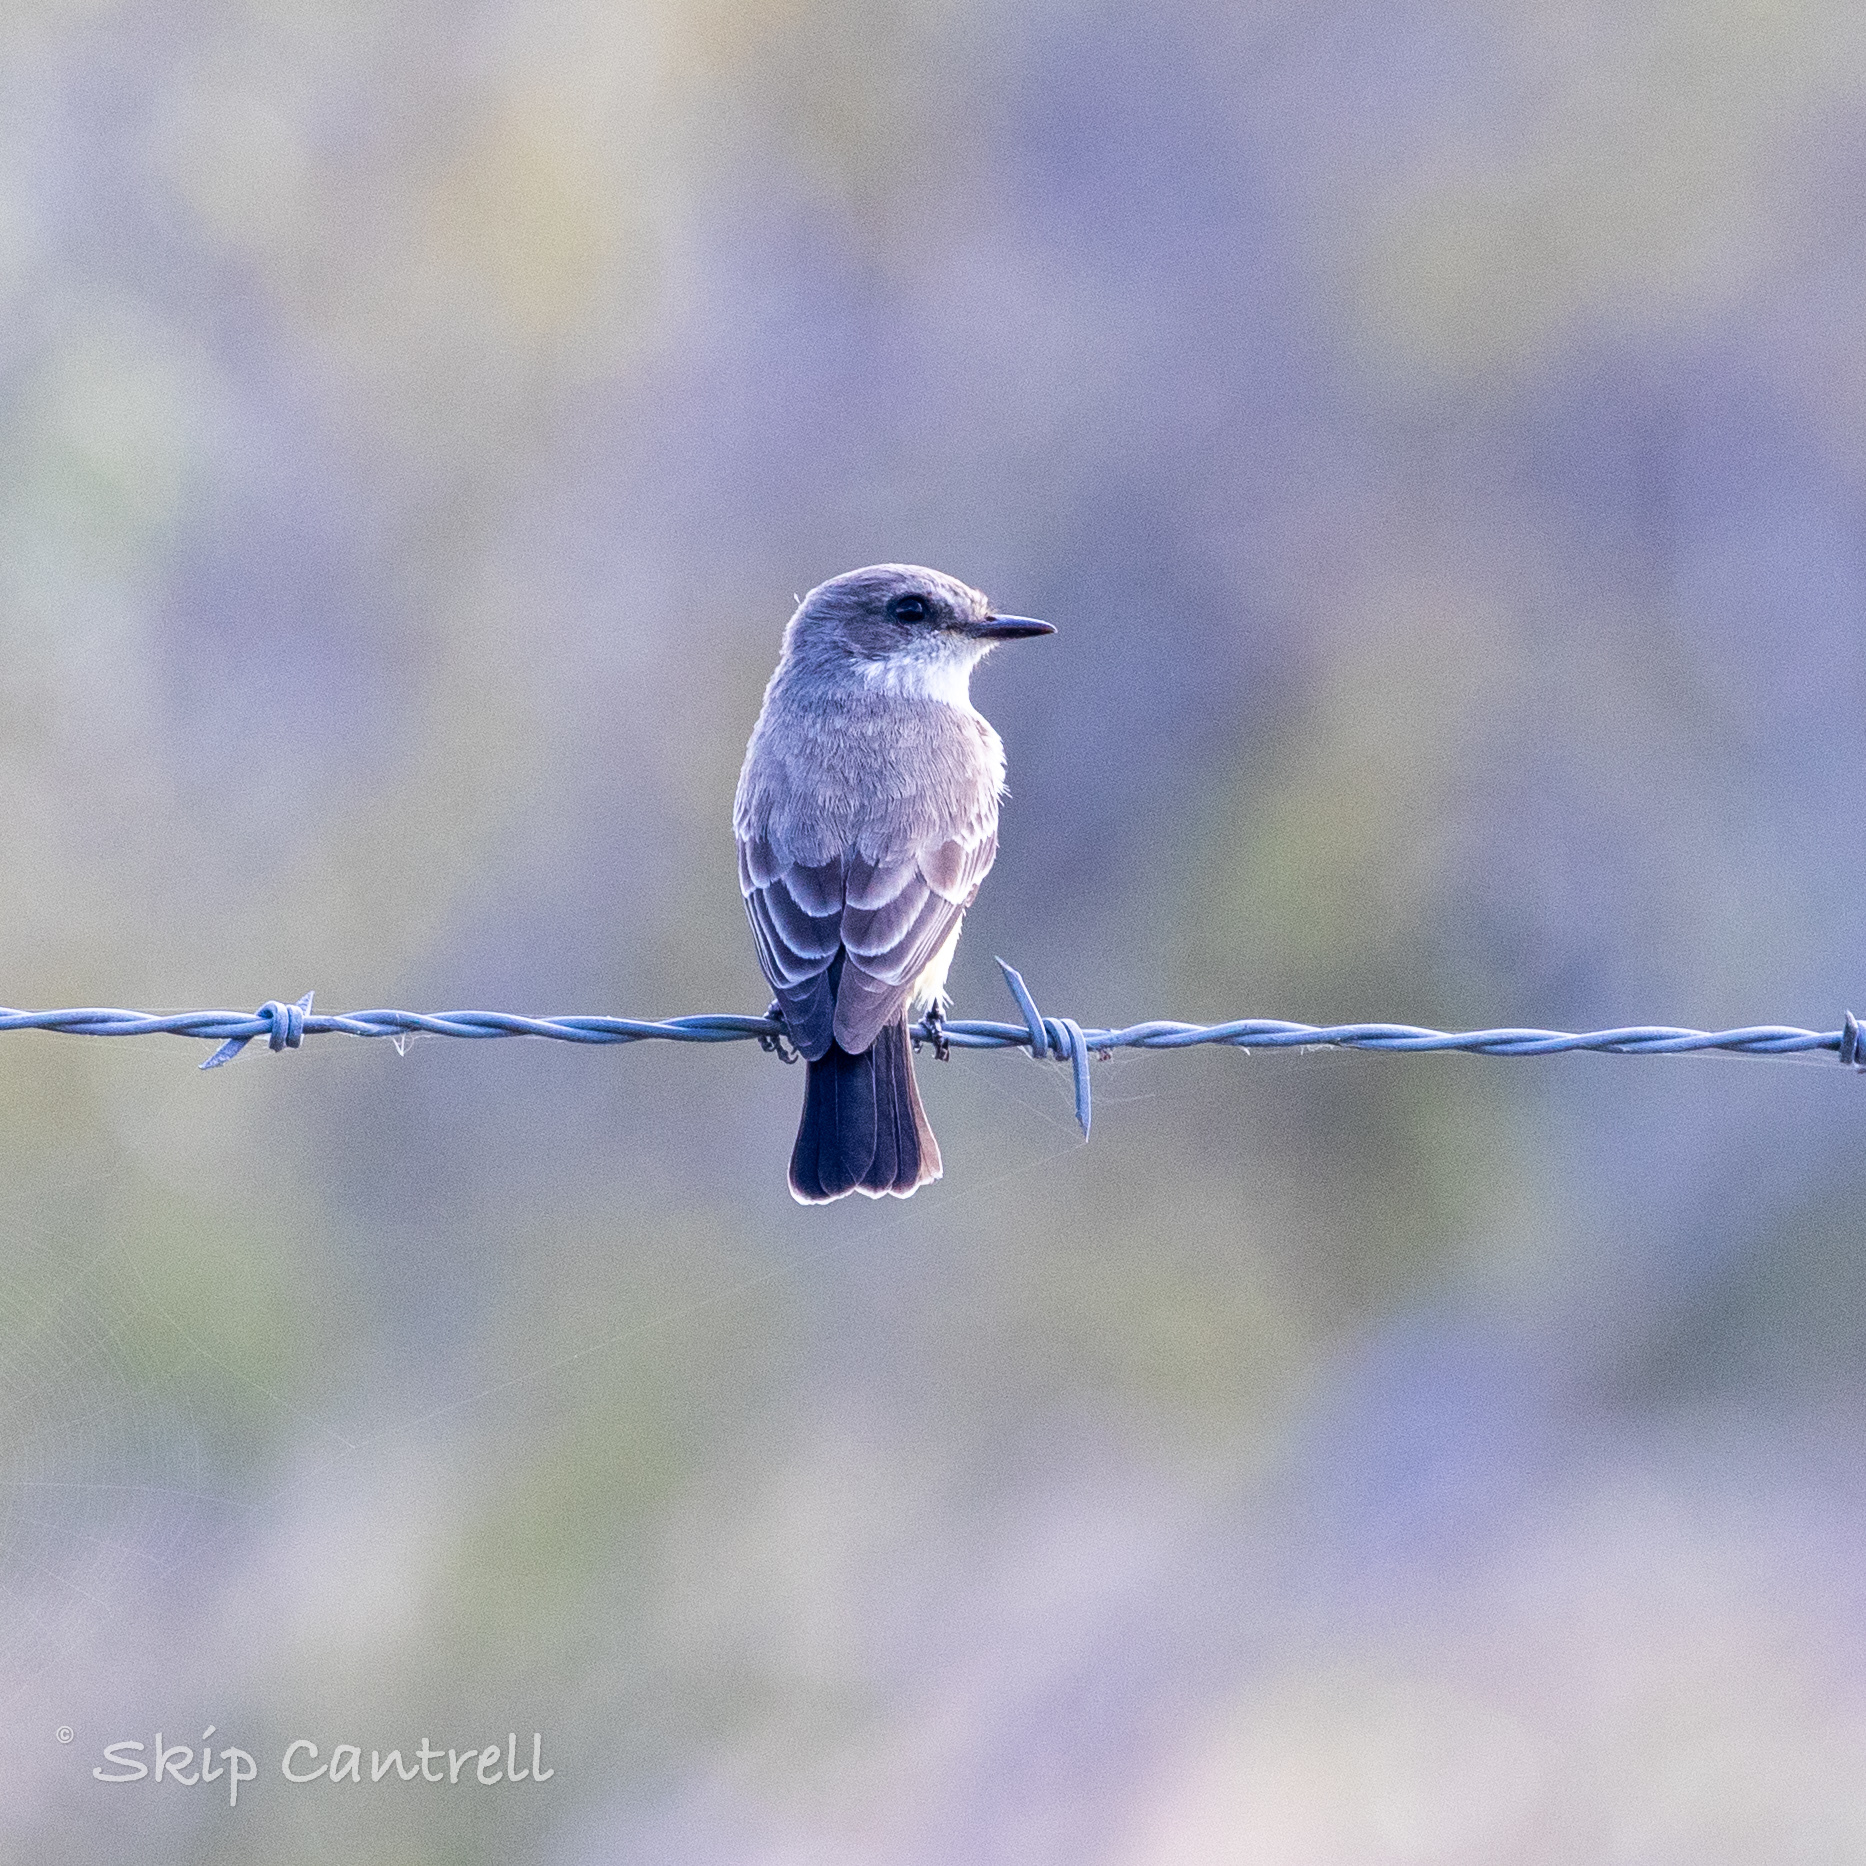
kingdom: Animalia
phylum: Chordata
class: Aves
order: Passeriformes
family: Tyrannidae
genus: Pyrocephalus
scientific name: Pyrocephalus rubinus
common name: Vermilion flycatcher
